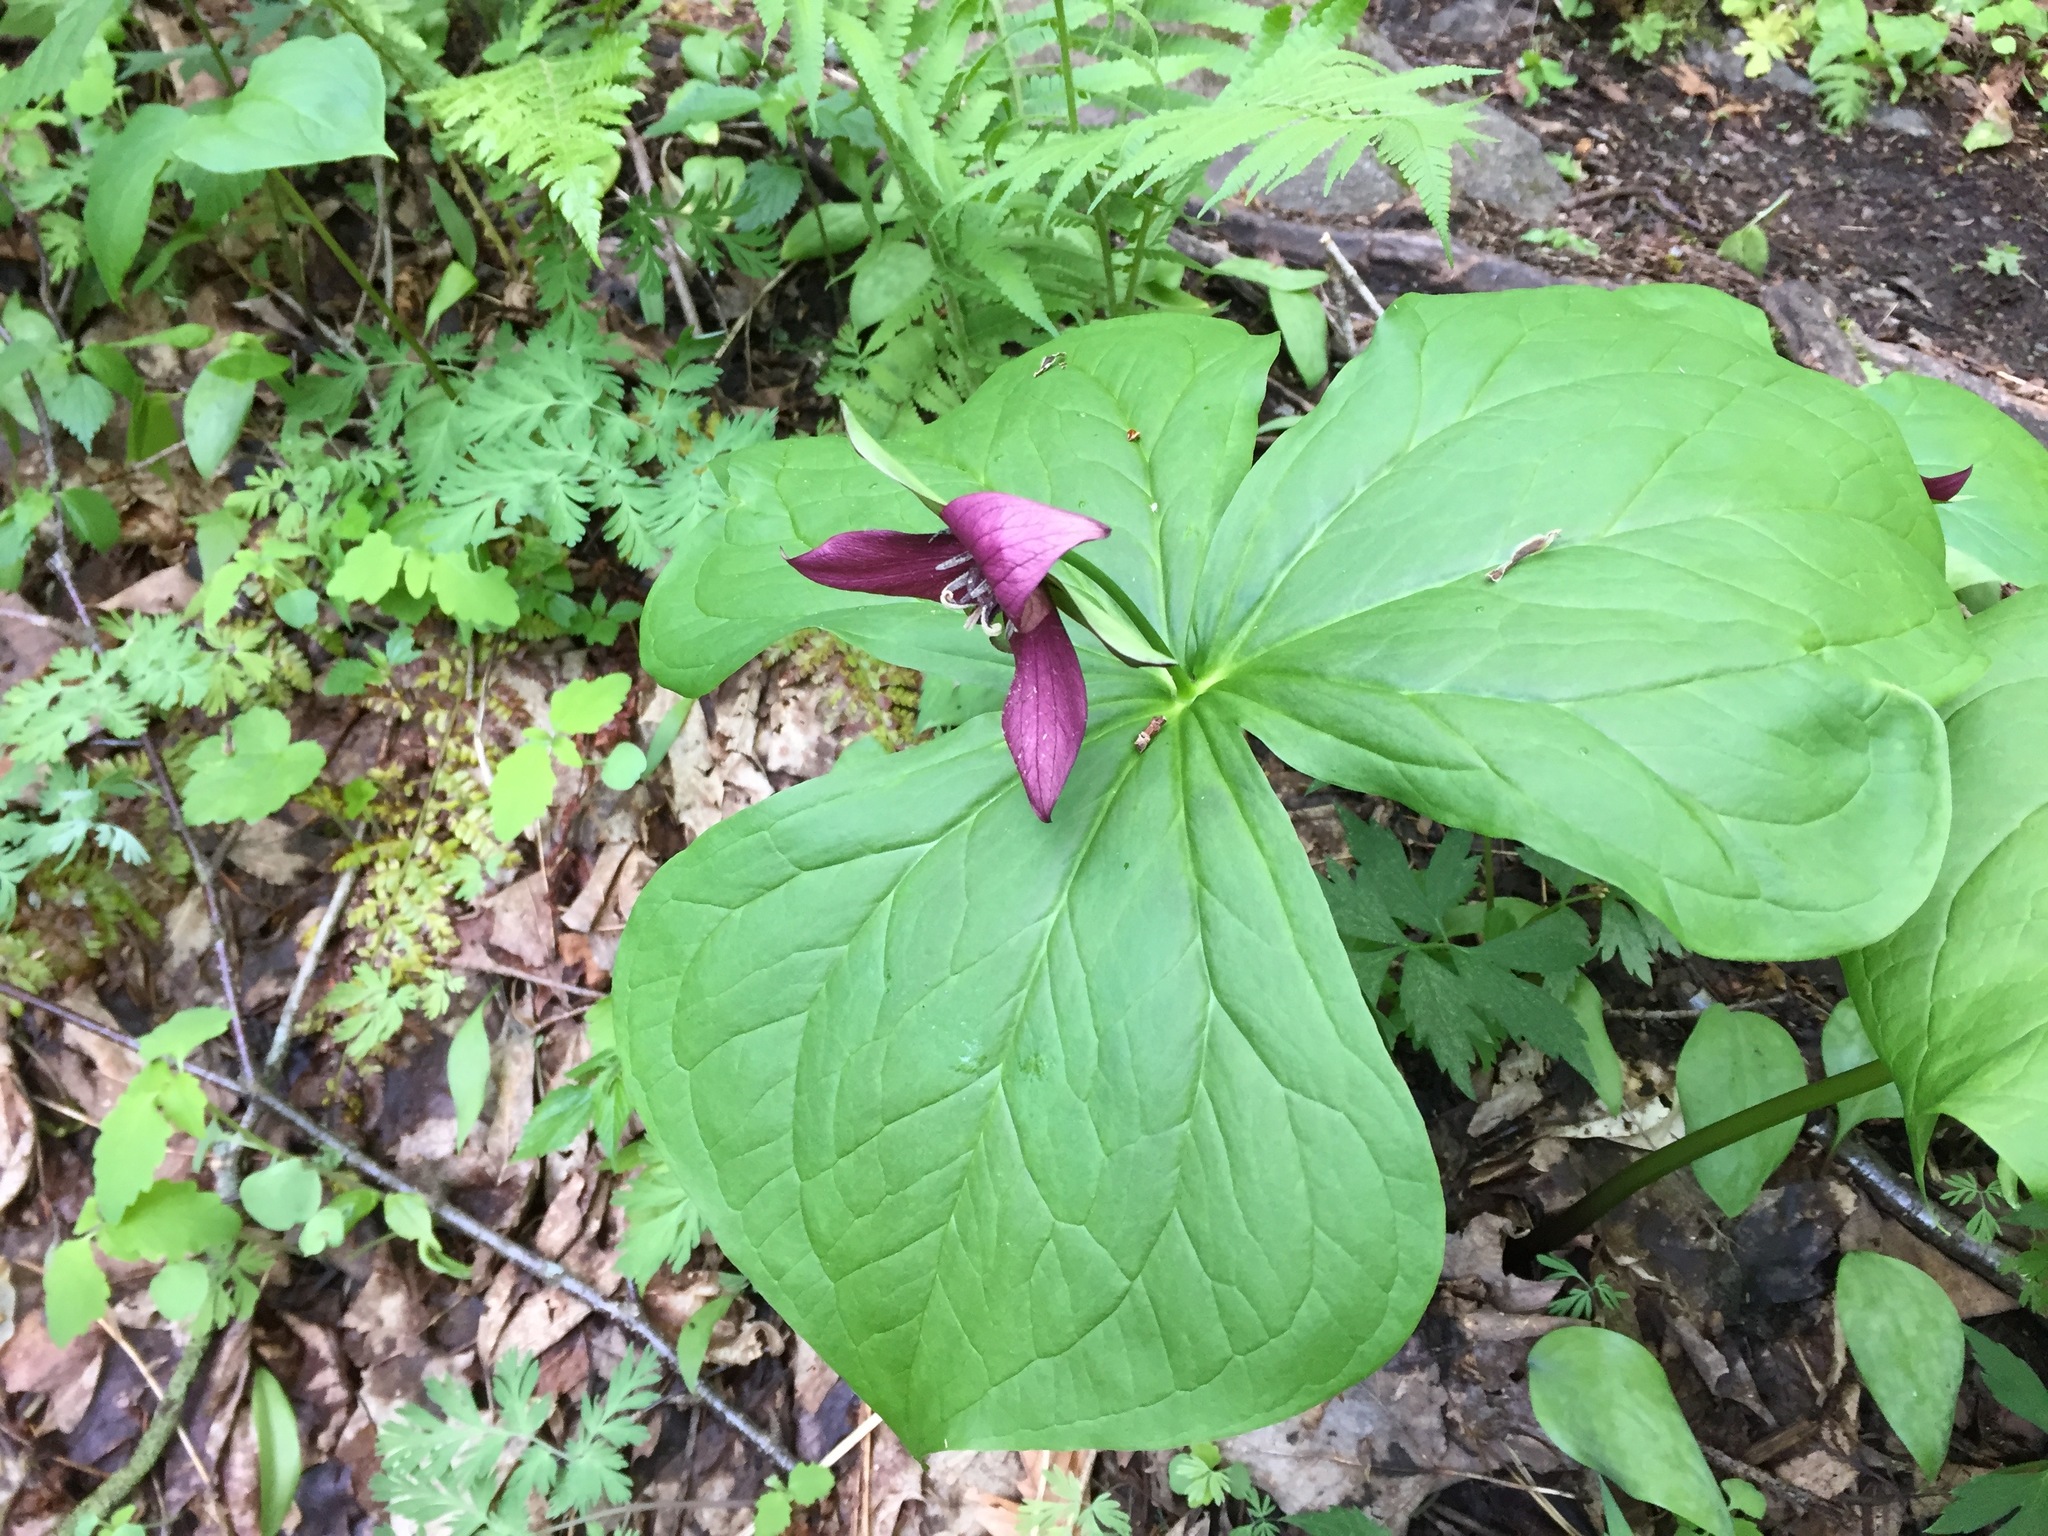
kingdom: Plantae
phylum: Tracheophyta
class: Liliopsida
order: Liliales
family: Melanthiaceae
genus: Trillium
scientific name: Trillium erectum
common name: Purple trillium
